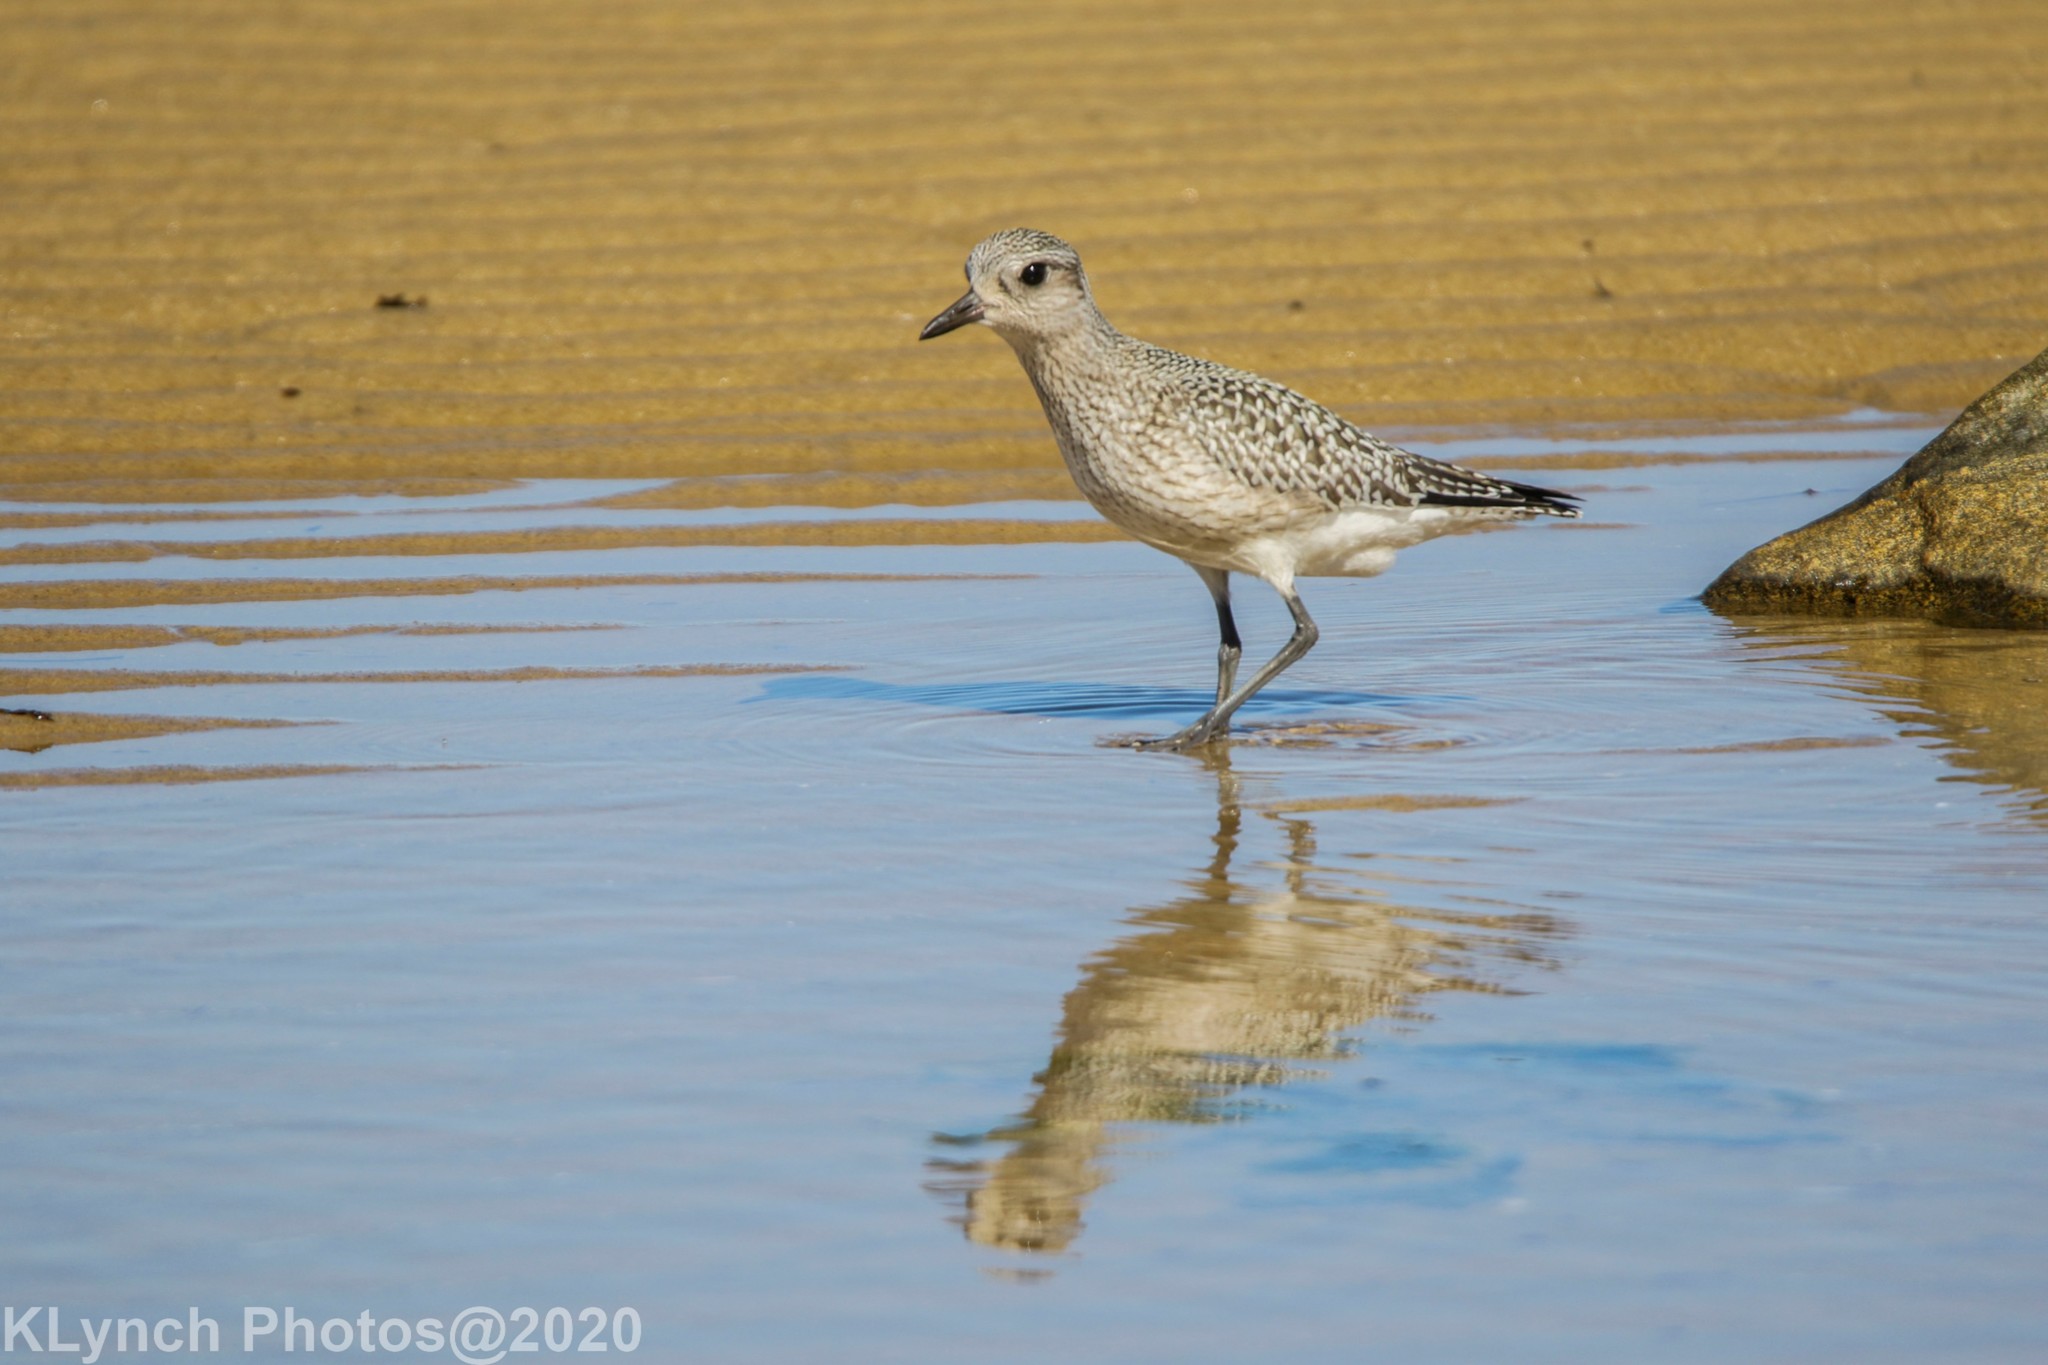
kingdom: Animalia
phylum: Chordata
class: Aves
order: Charadriiformes
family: Charadriidae
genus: Pluvialis
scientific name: Pluvialis squatarola
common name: Grey plover
